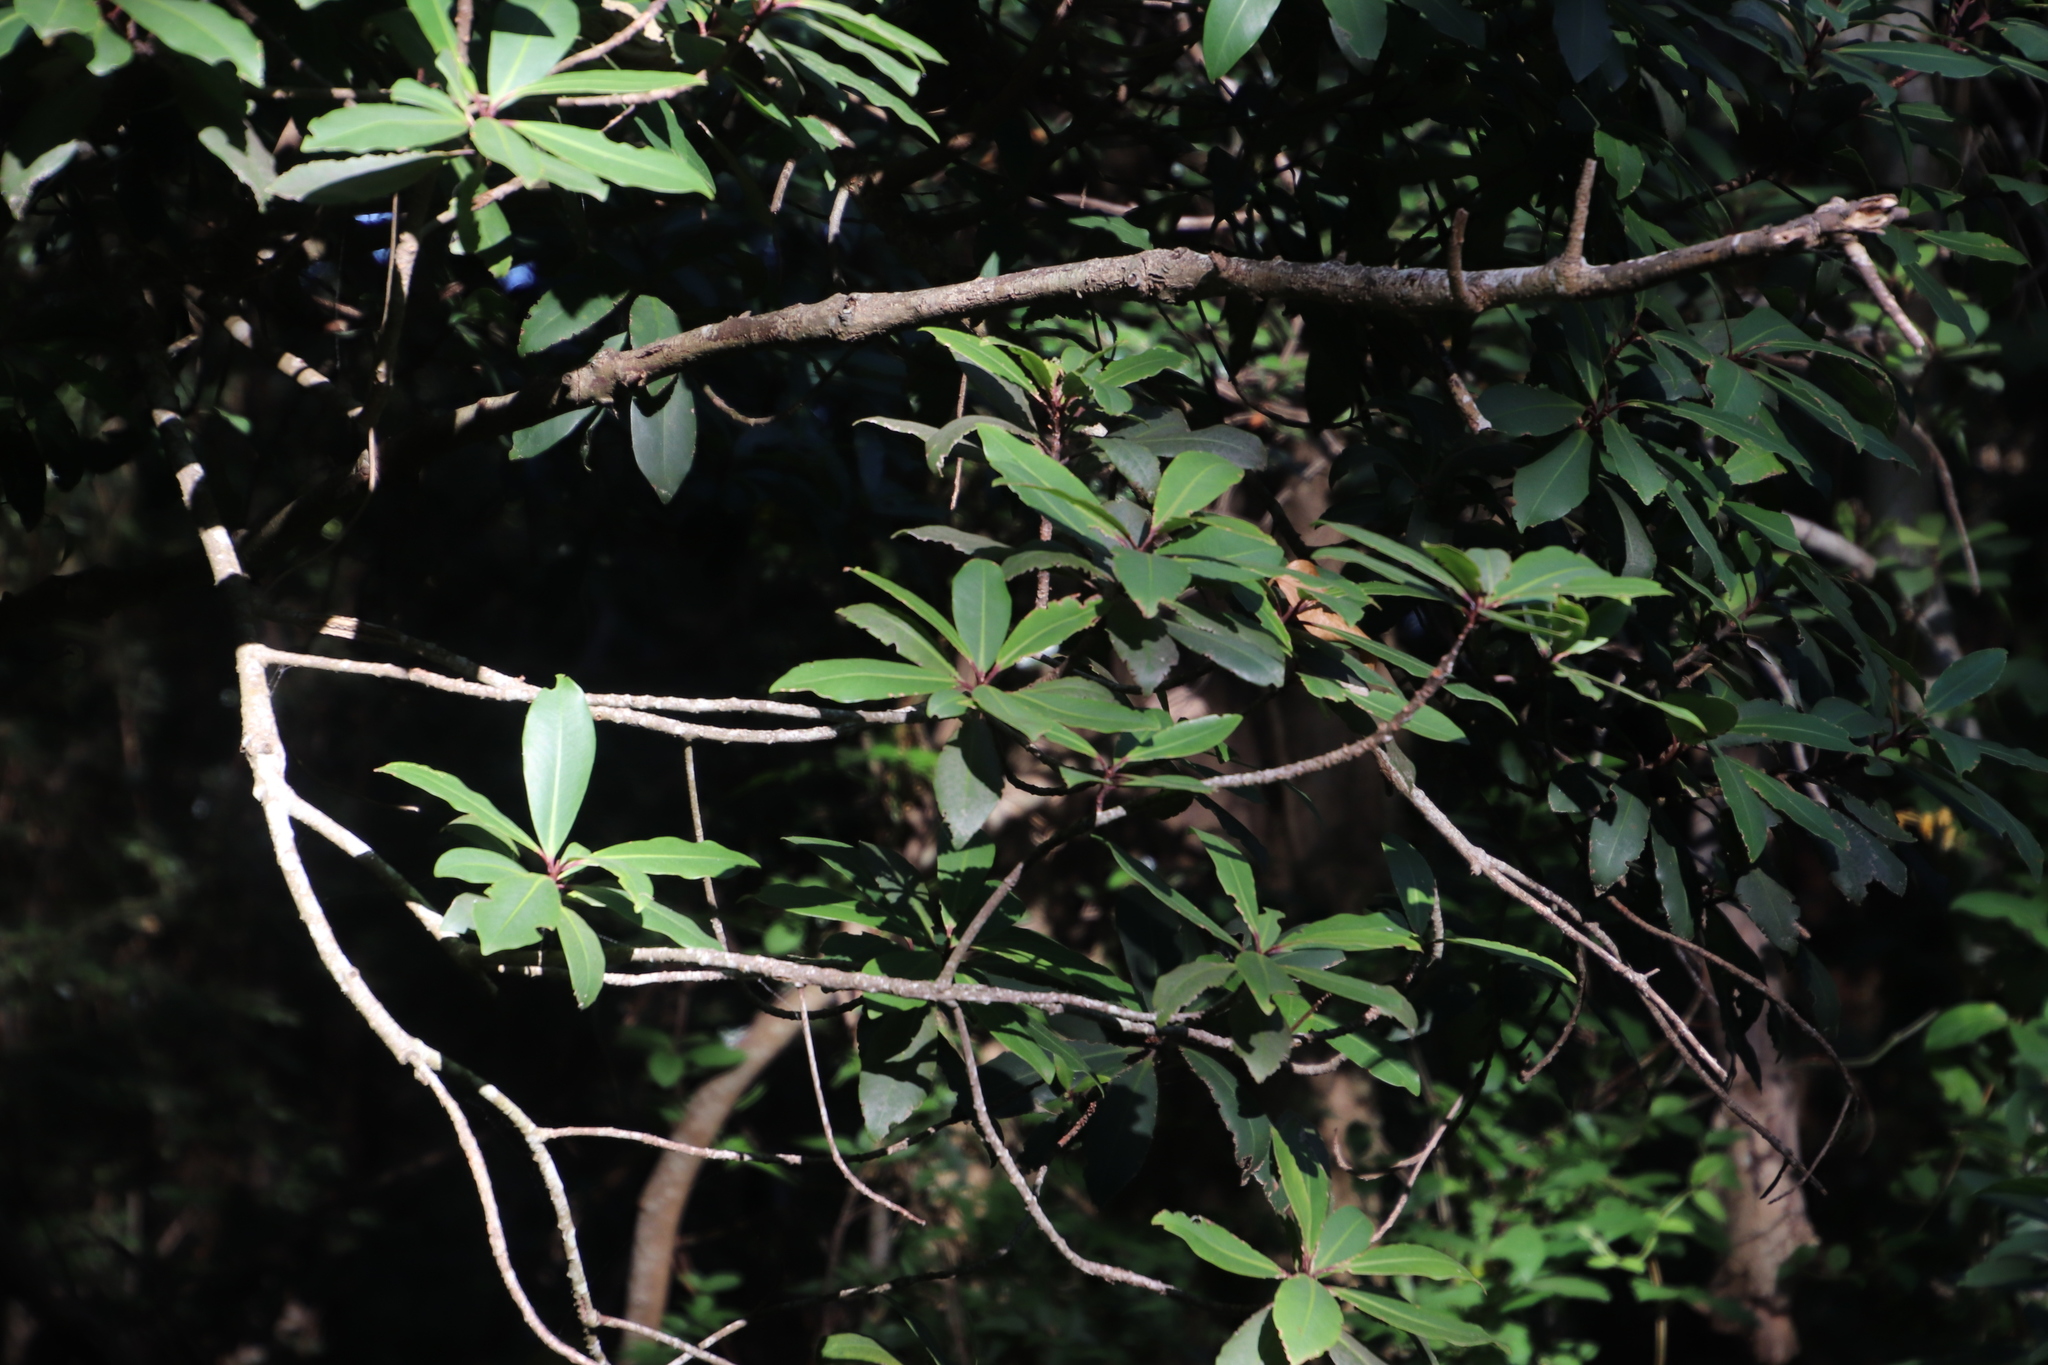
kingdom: Plantae
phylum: Tracheophyta
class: Magnoliopsida
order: Ericales
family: Primulaceae
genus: Myrsine
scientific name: Myrsine melanophloeos
